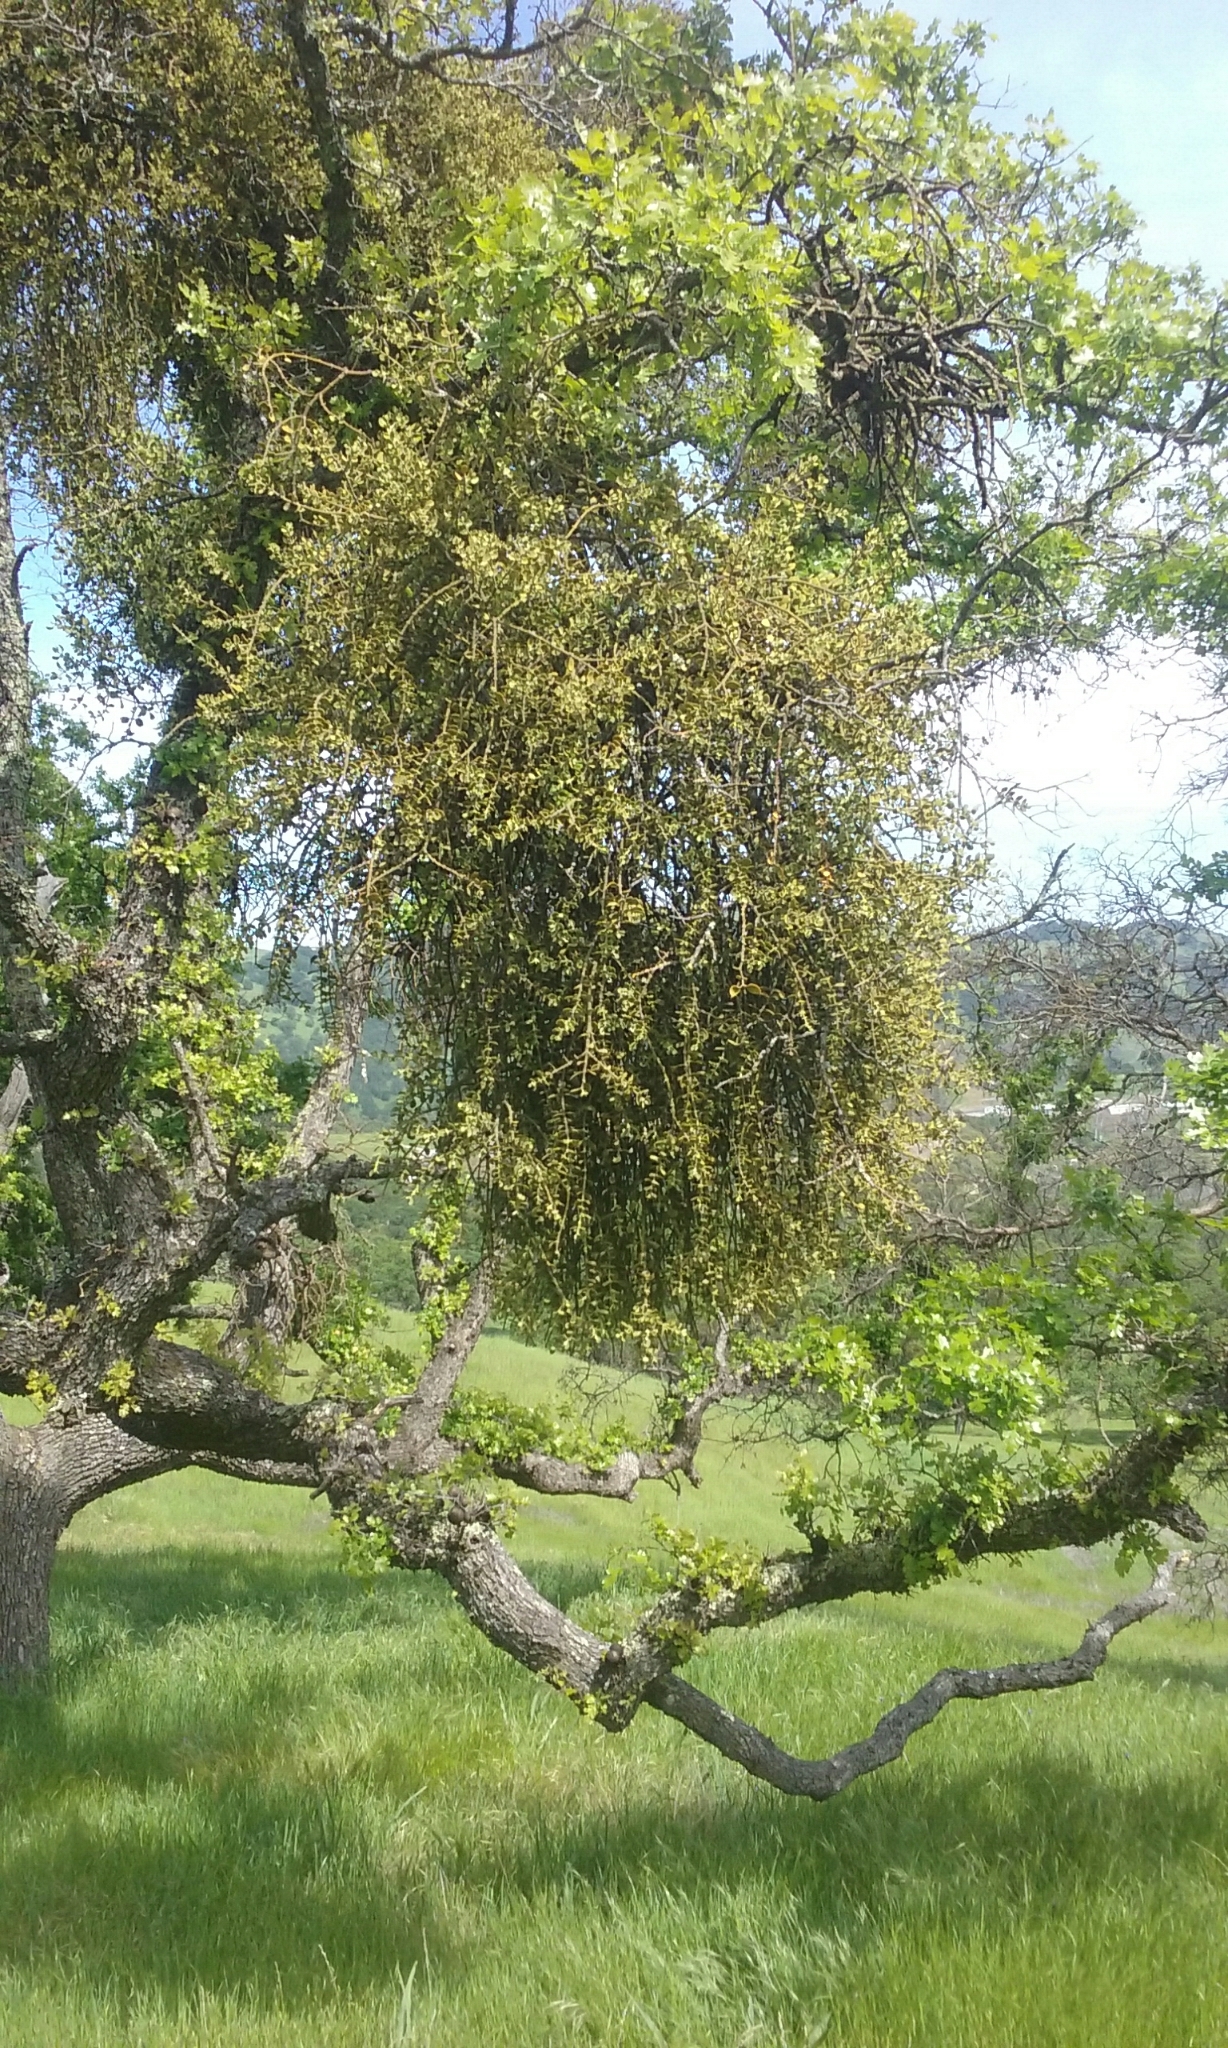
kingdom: Plantae
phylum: Tracheophyta
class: Magnoliopsida
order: Santalales
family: Viscaceae
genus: Phoradendron
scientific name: Phoradendron leucarpum
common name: Pacific mistletoe
